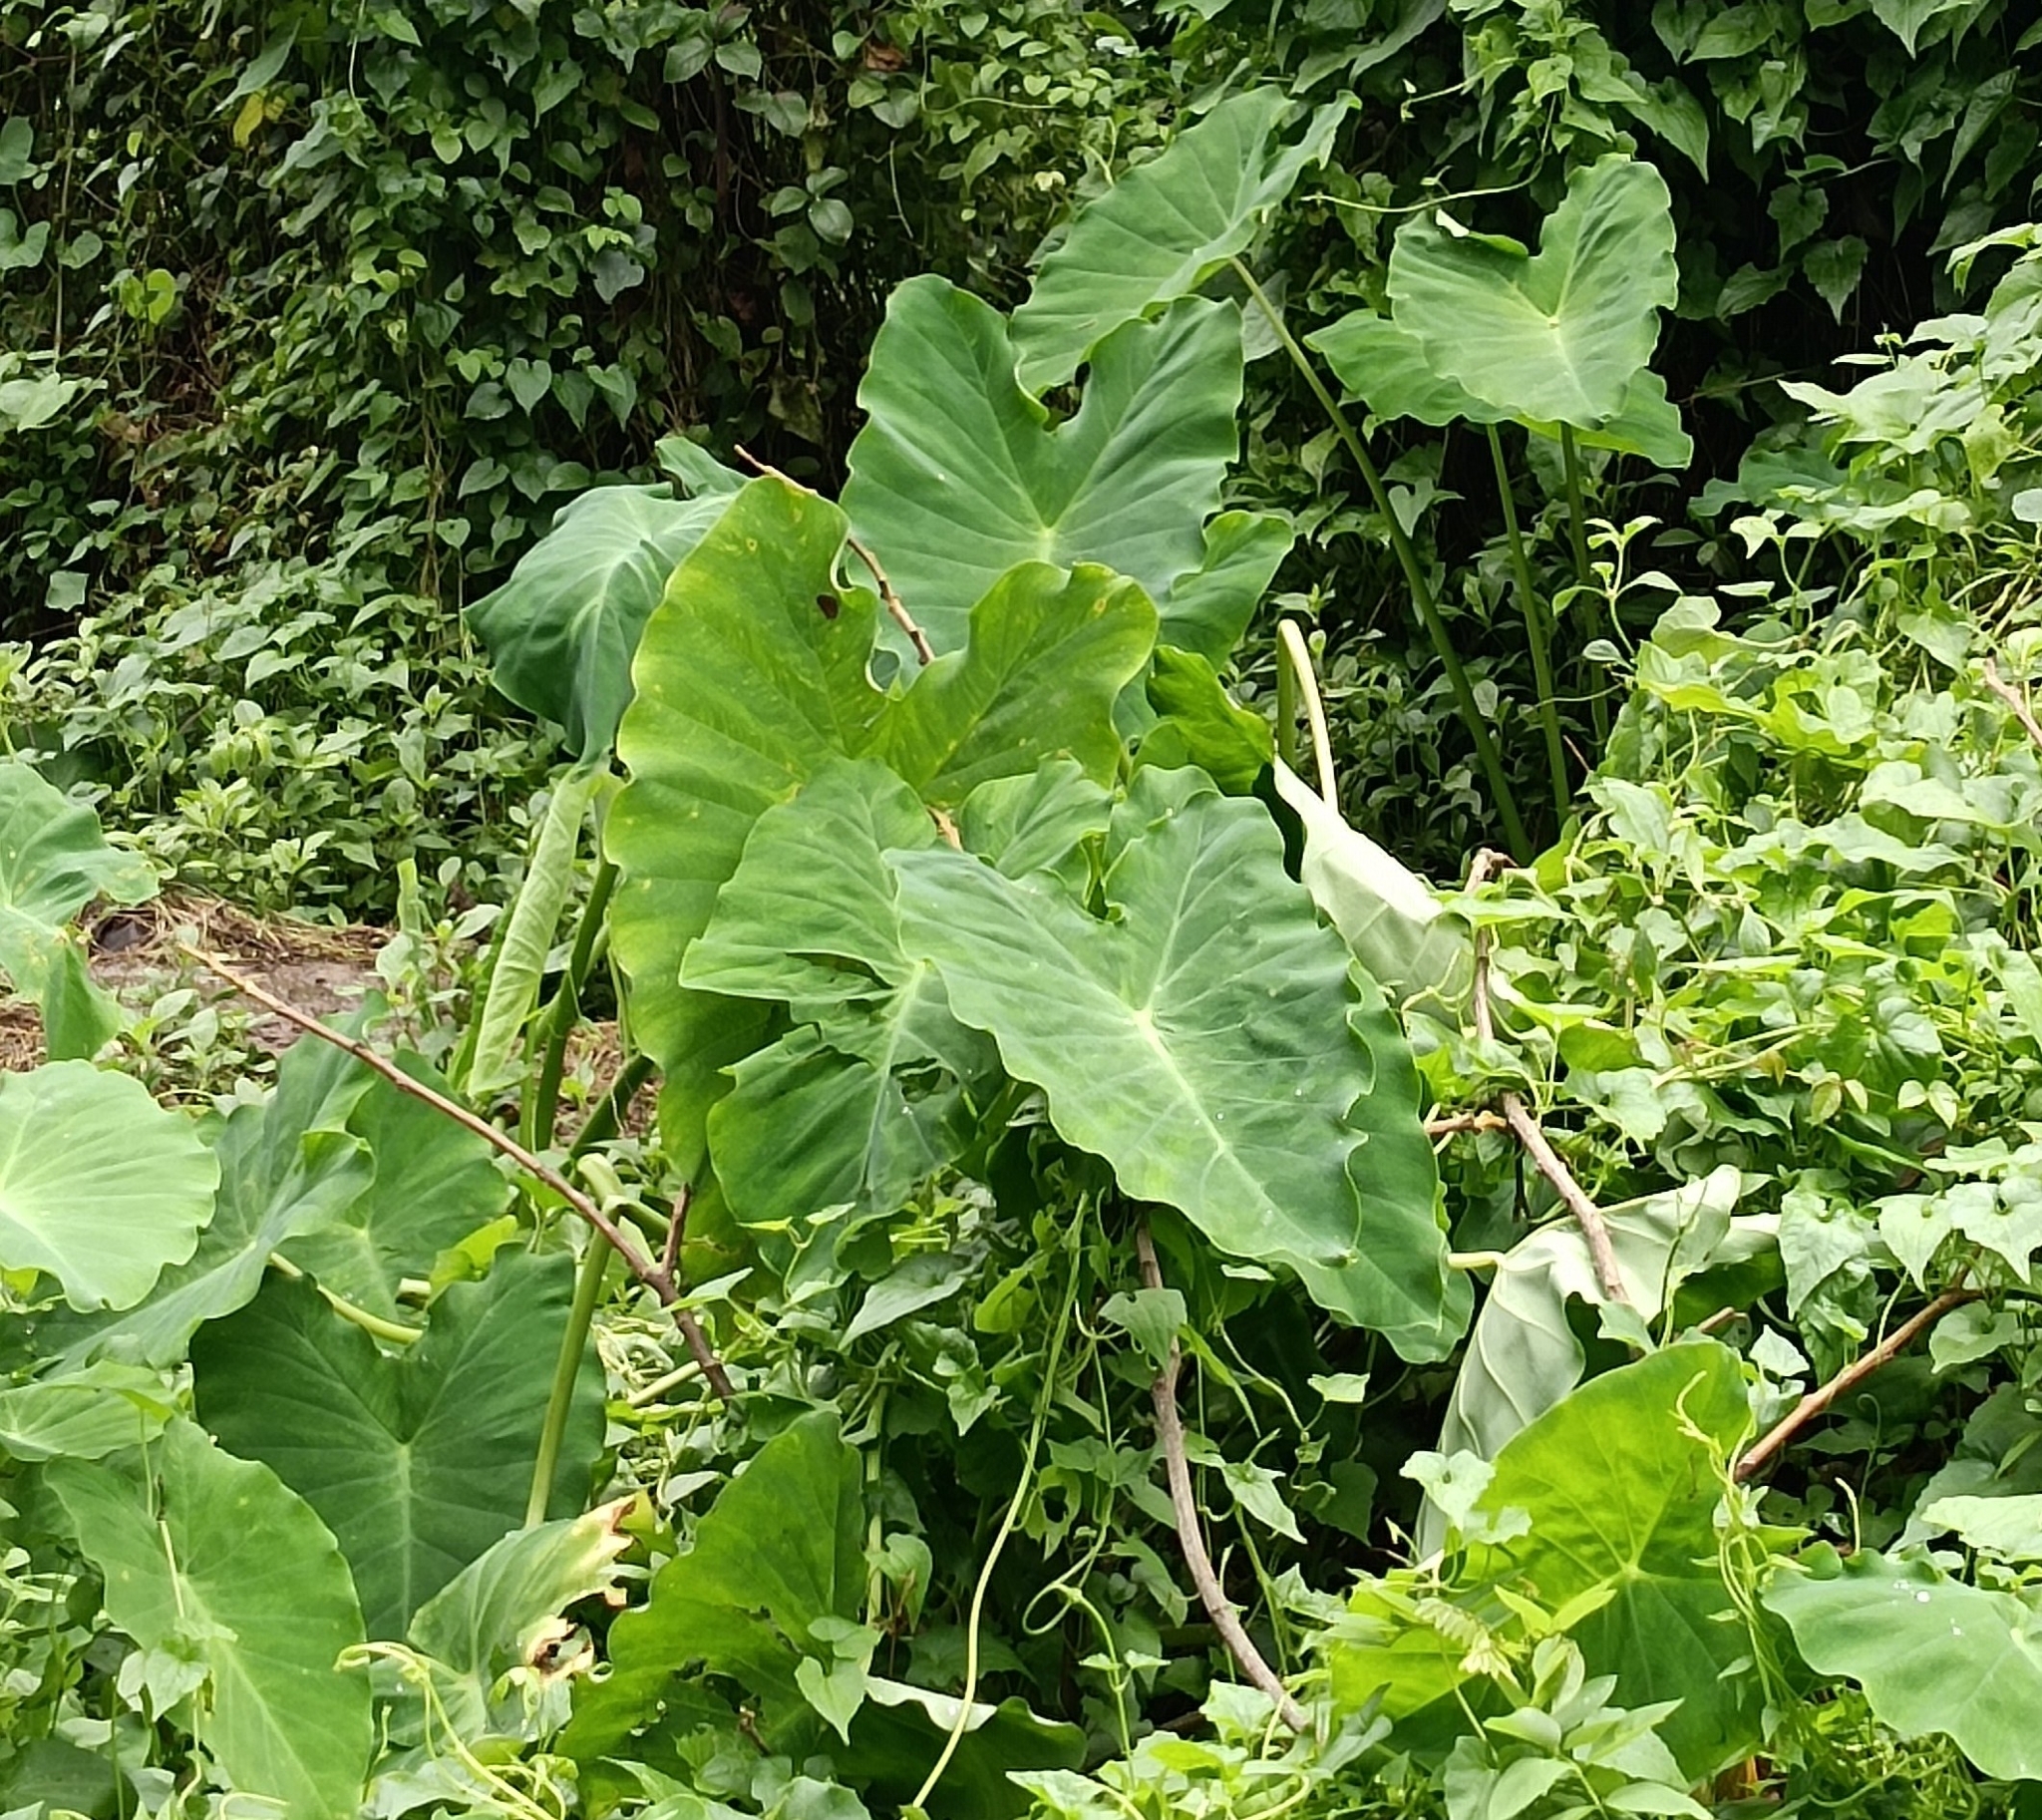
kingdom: Plantae
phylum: Tracheophyta
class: Liliopsida
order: Alismatales
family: Araceae
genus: Colocasia
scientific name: Colocasia esculenta
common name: Taro
